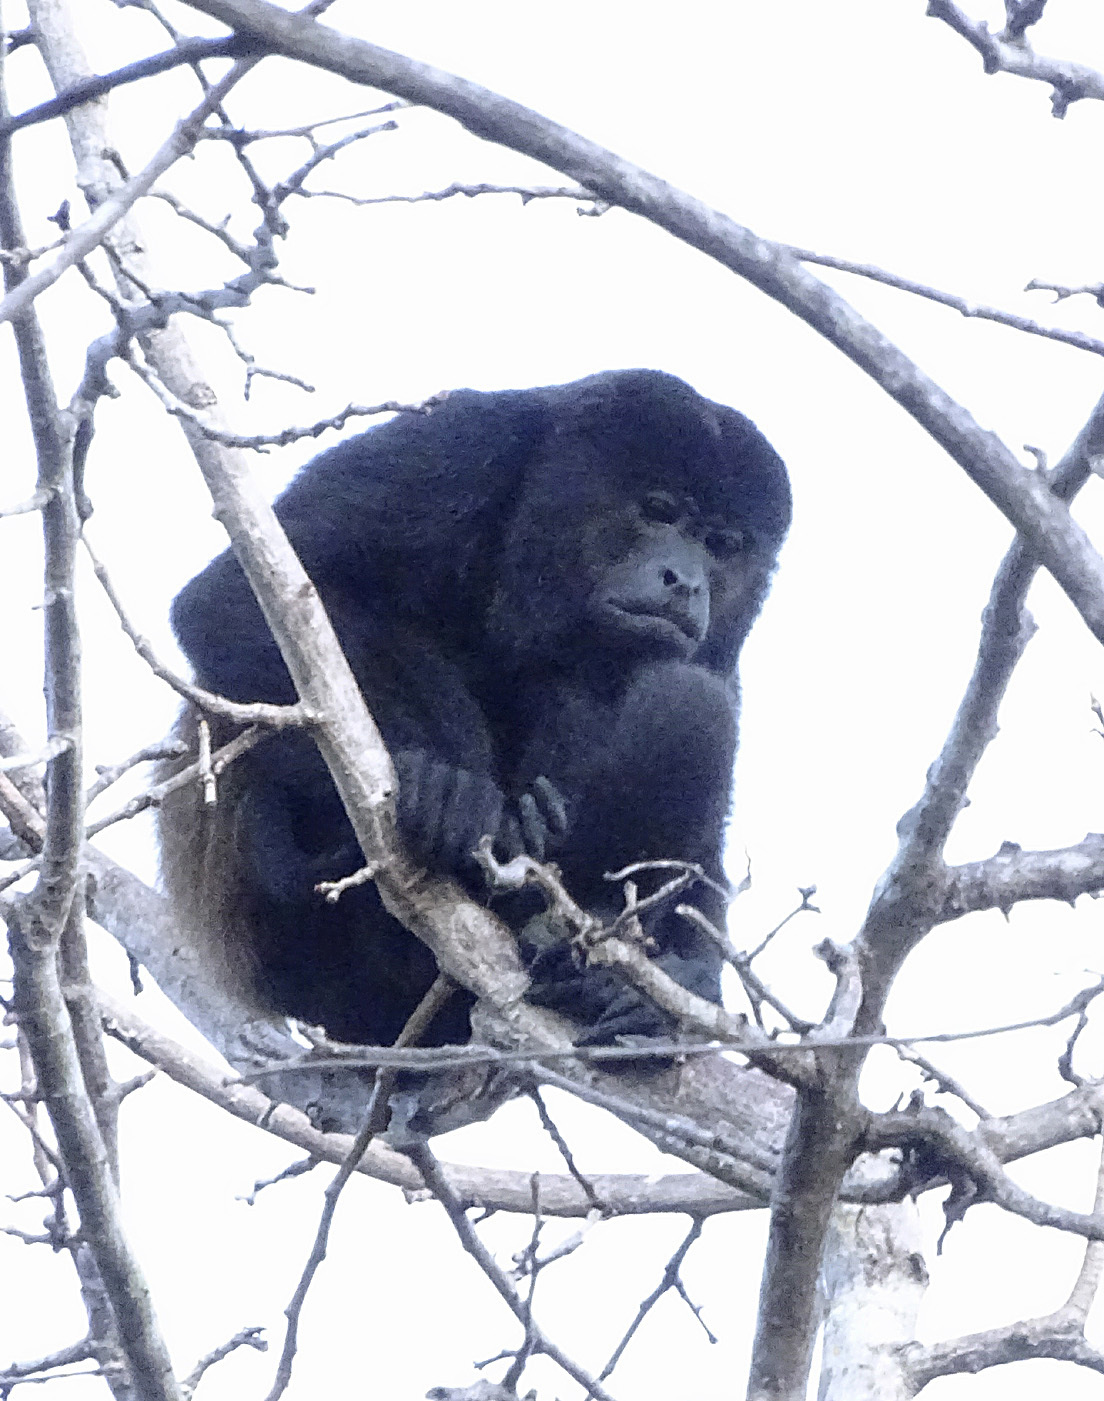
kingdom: Animalia
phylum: Chordata
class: Mammalia
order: Primates
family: Atelidae
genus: Alouatta
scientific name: Alouatta palliata
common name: Mantled howler
